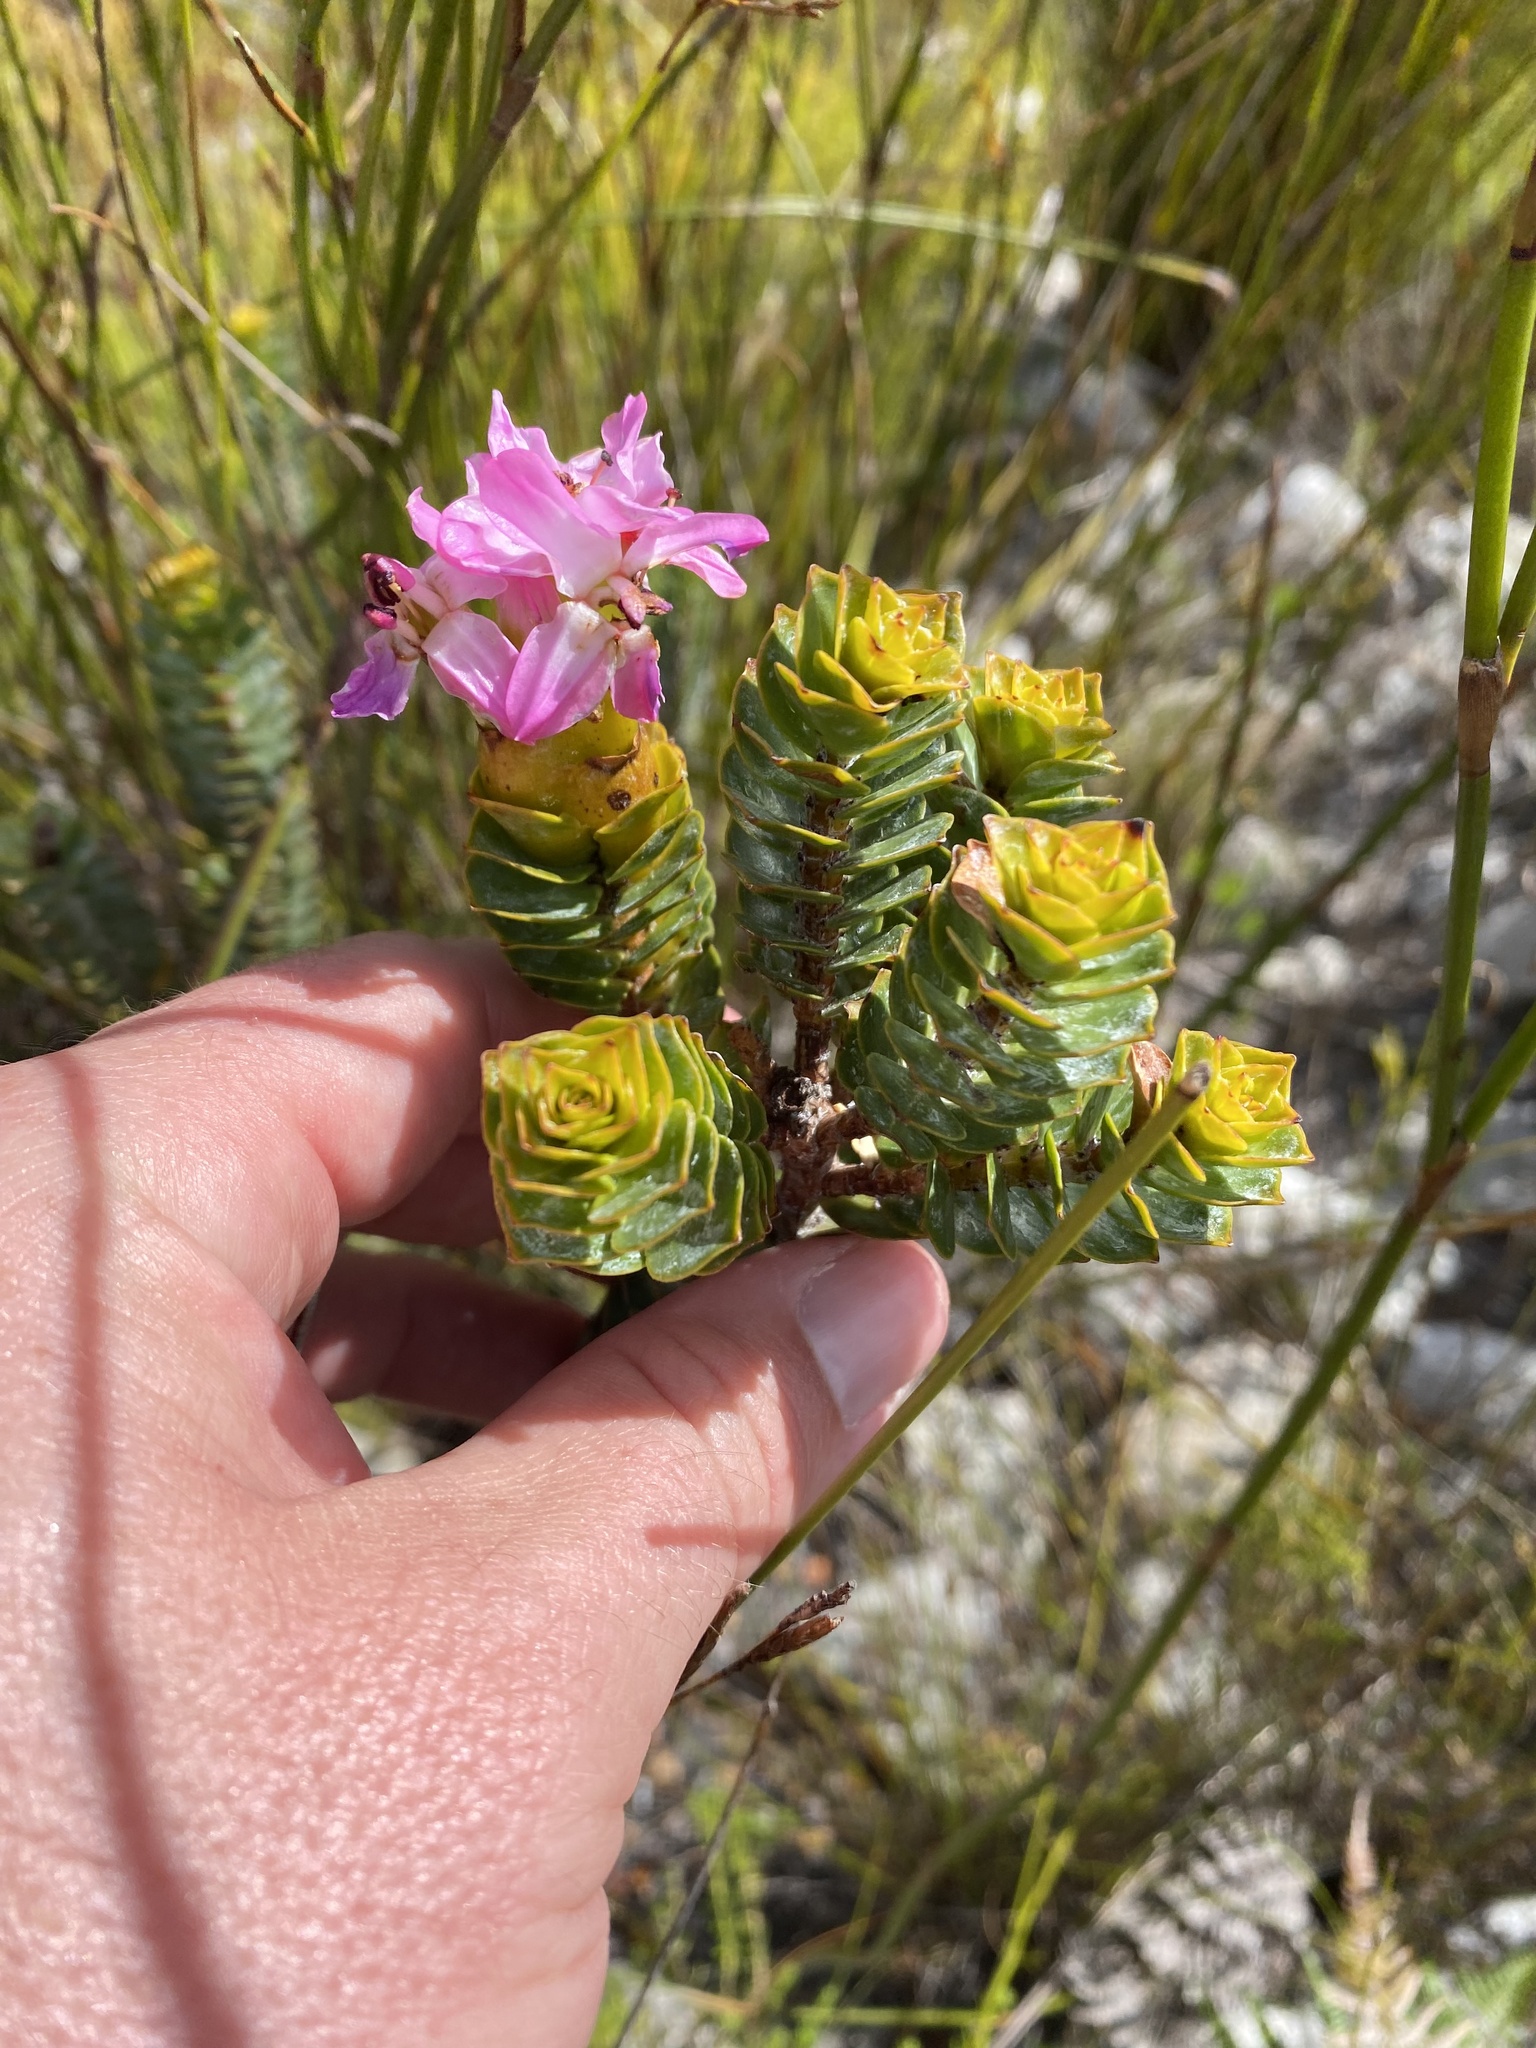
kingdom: Plantae
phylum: Tracheophyta
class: Magnoliopsida
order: Myrtales
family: Penaeaceae
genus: Saltera
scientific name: Saltera sarcocolla
